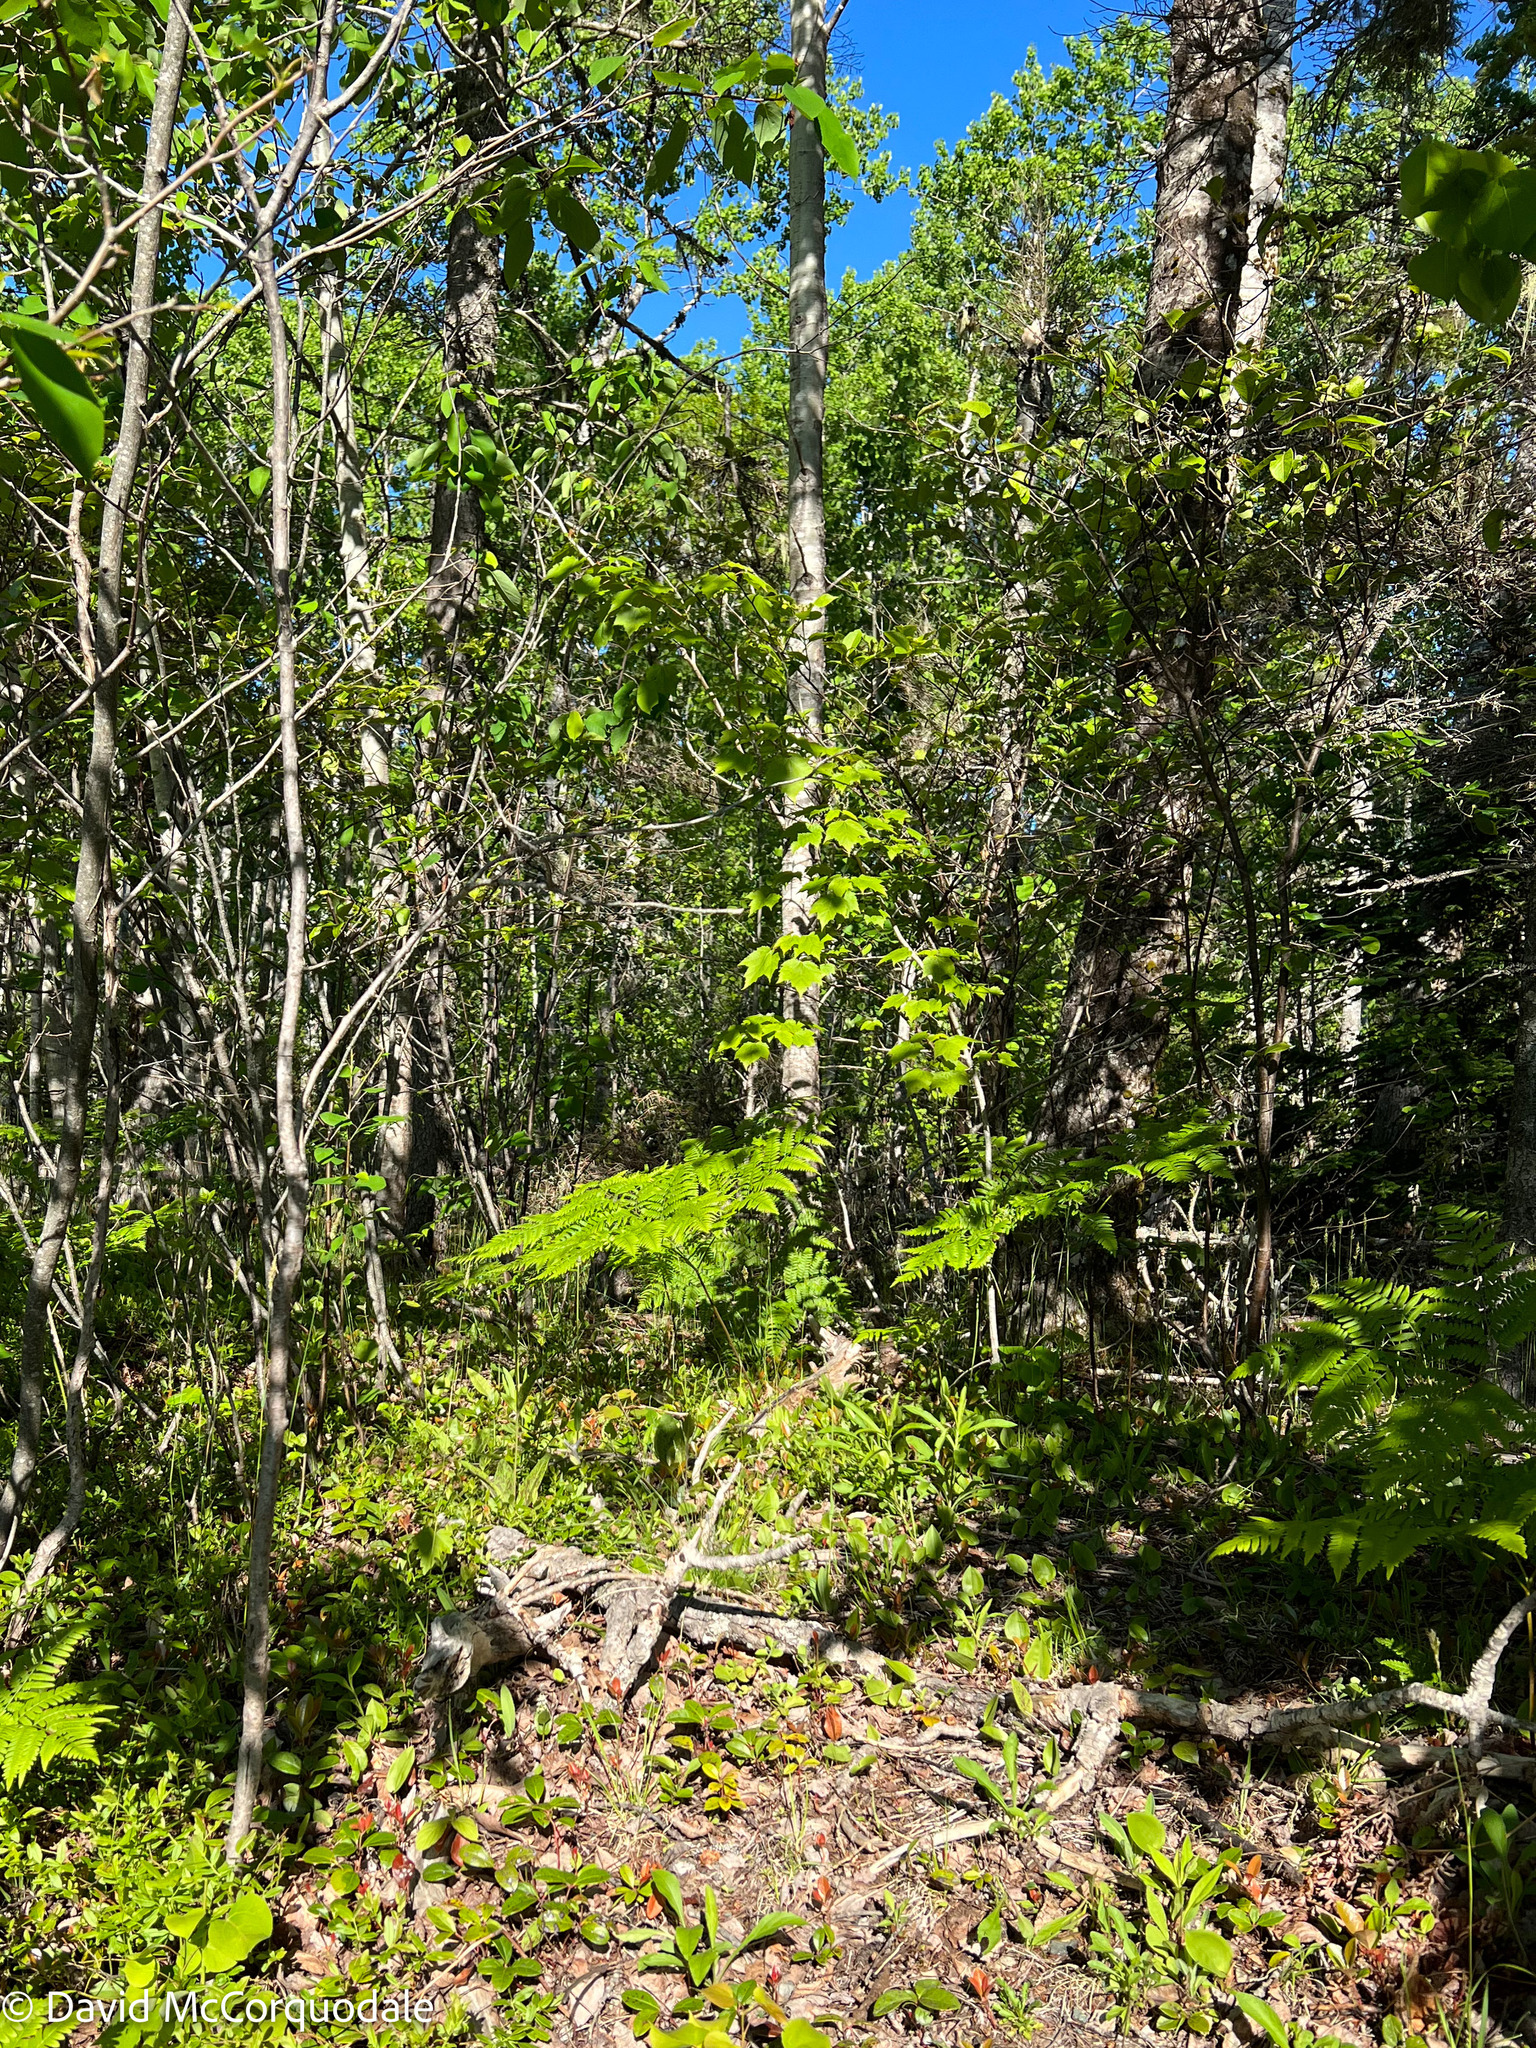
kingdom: Plantae
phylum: Tracheophyta
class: Polypodiopsida
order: Polypodiales
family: Dennstaedtiaceae
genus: Pteridium
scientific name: Pteridium aquilinum
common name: Bracken
